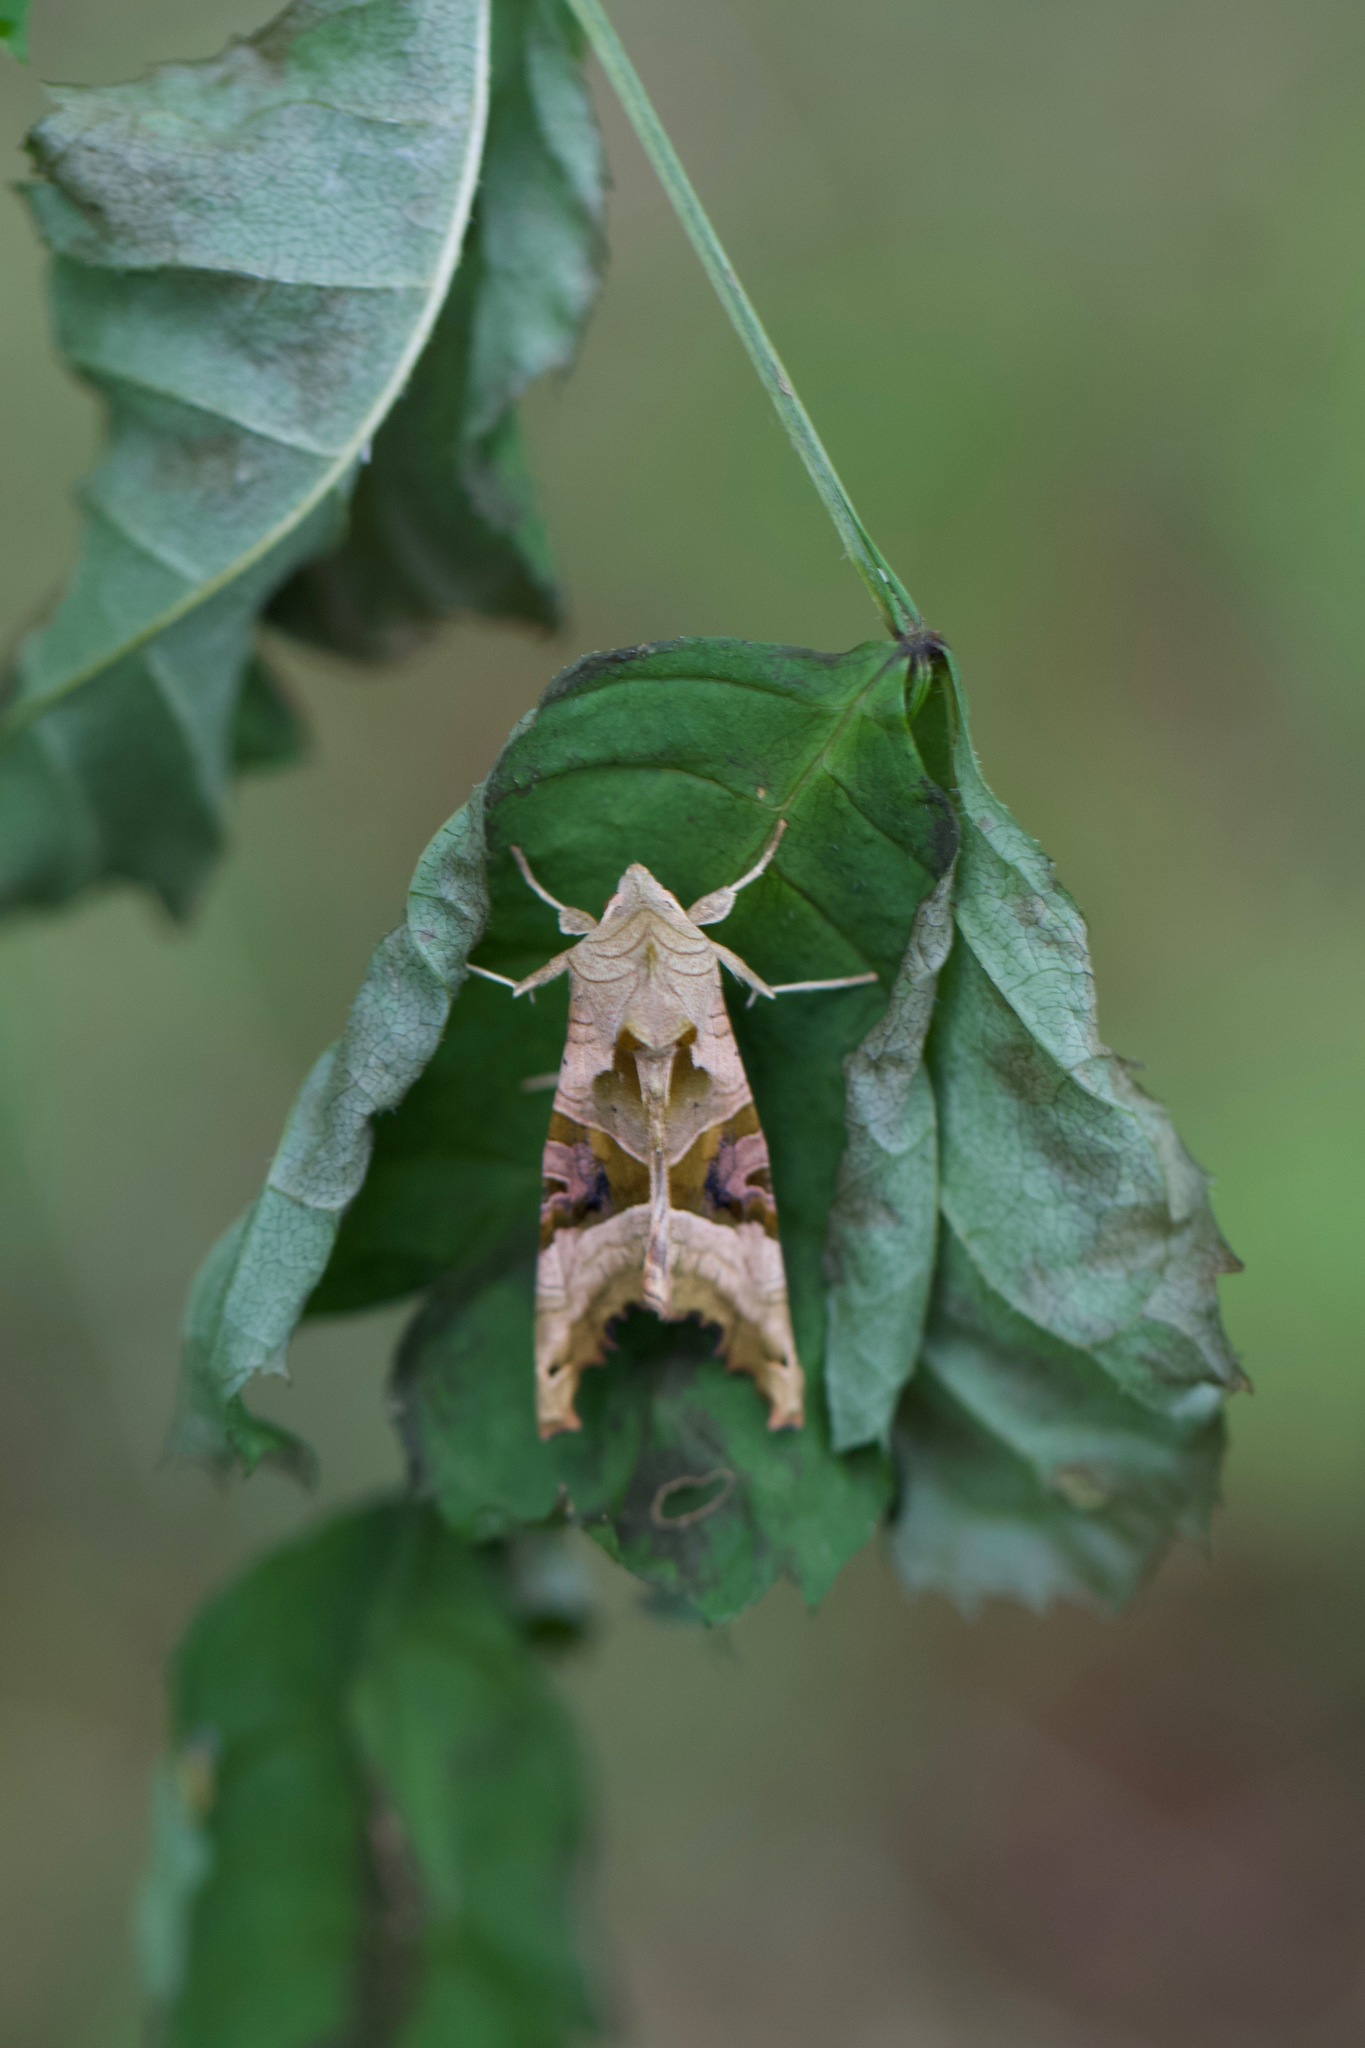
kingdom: Animalia
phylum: Arthropoda
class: Insecta
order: Lepidoptera
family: Noctuidae
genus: Phlogophora
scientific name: Phlogophora meticulosa
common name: Angle shades
